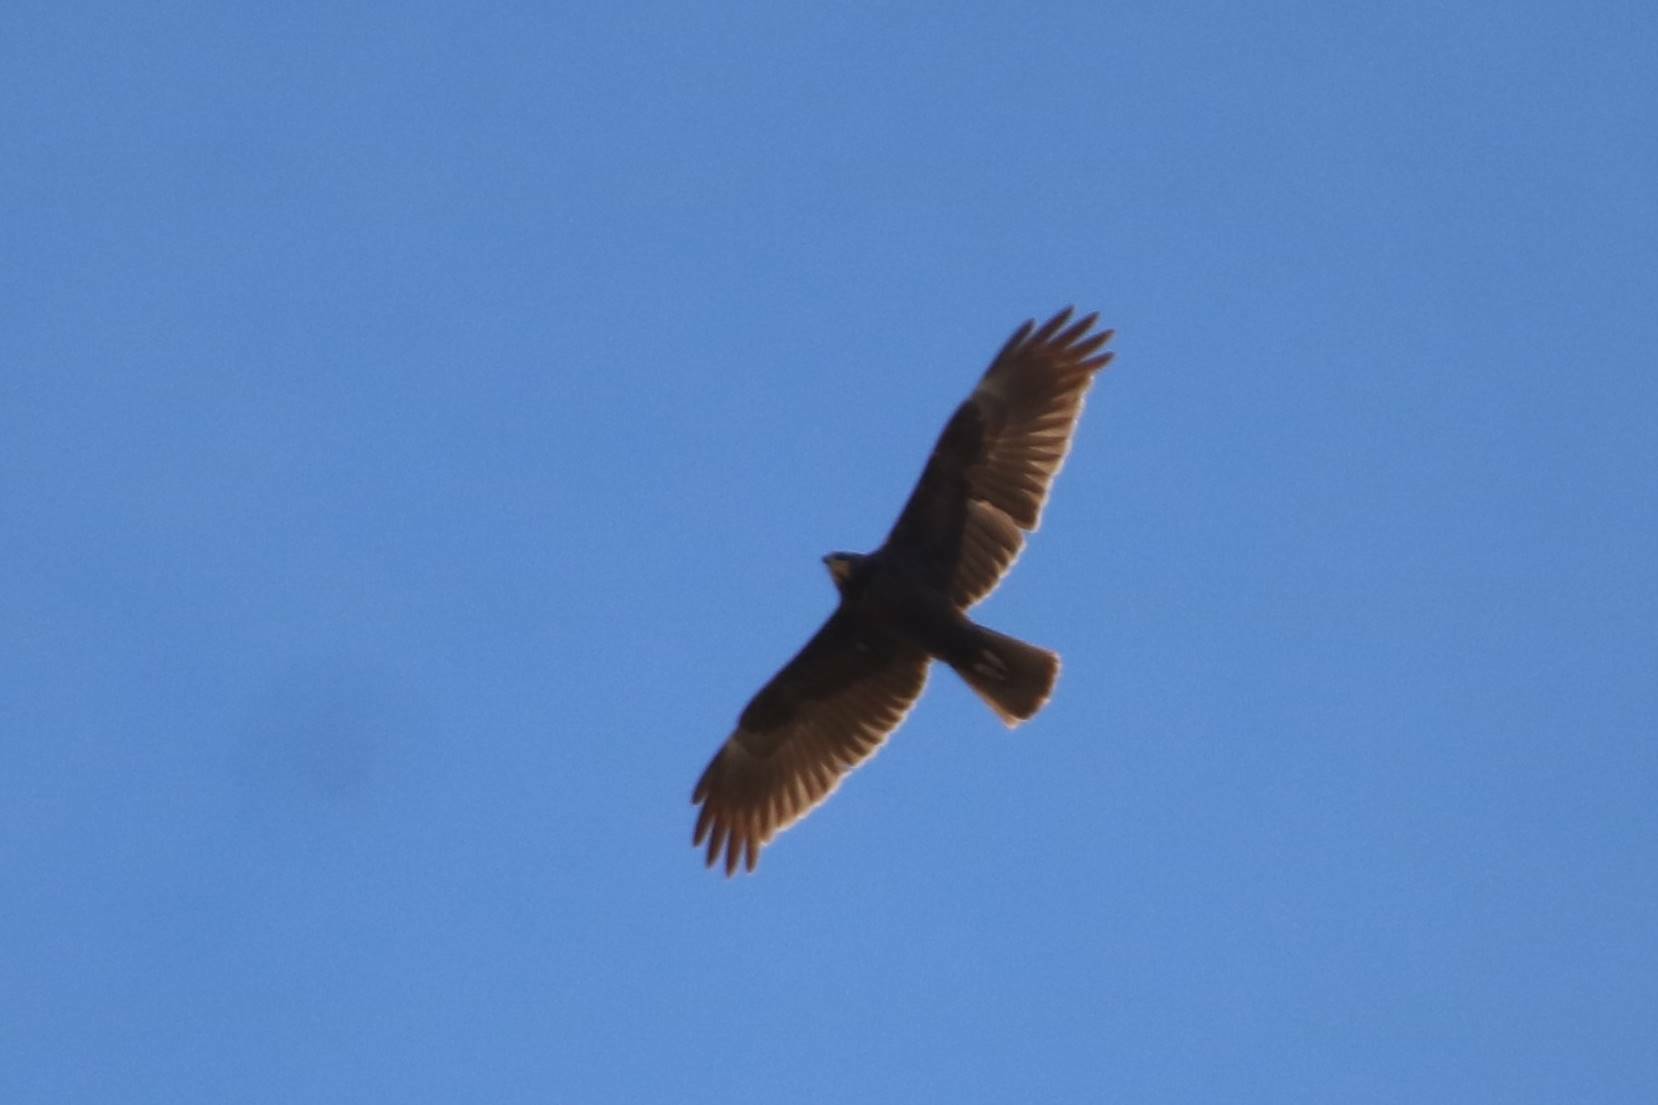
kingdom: Animalia
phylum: Chordata
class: Aves
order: Accipitriformes
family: Accipitridae
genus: Circus
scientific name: Circus aeruginosus
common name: Western marsh harrier
